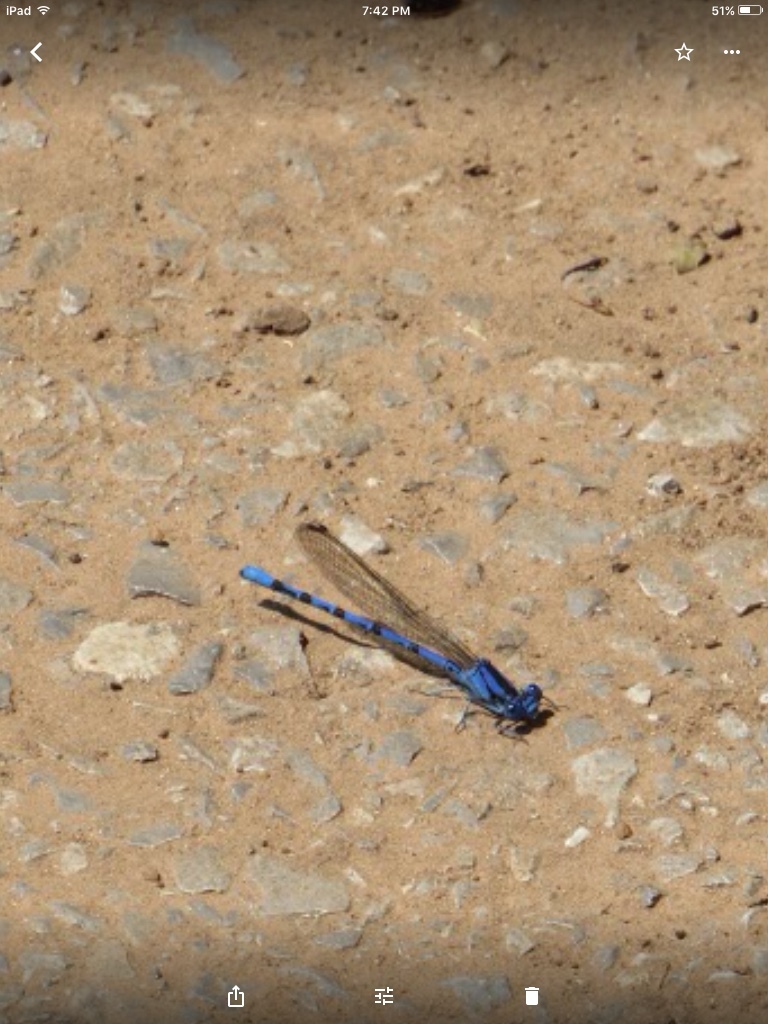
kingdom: Animalia
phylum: Arthropoda
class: Insecta
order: Odonata
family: Coenagrionidae
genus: Argia
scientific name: Argia funebris
